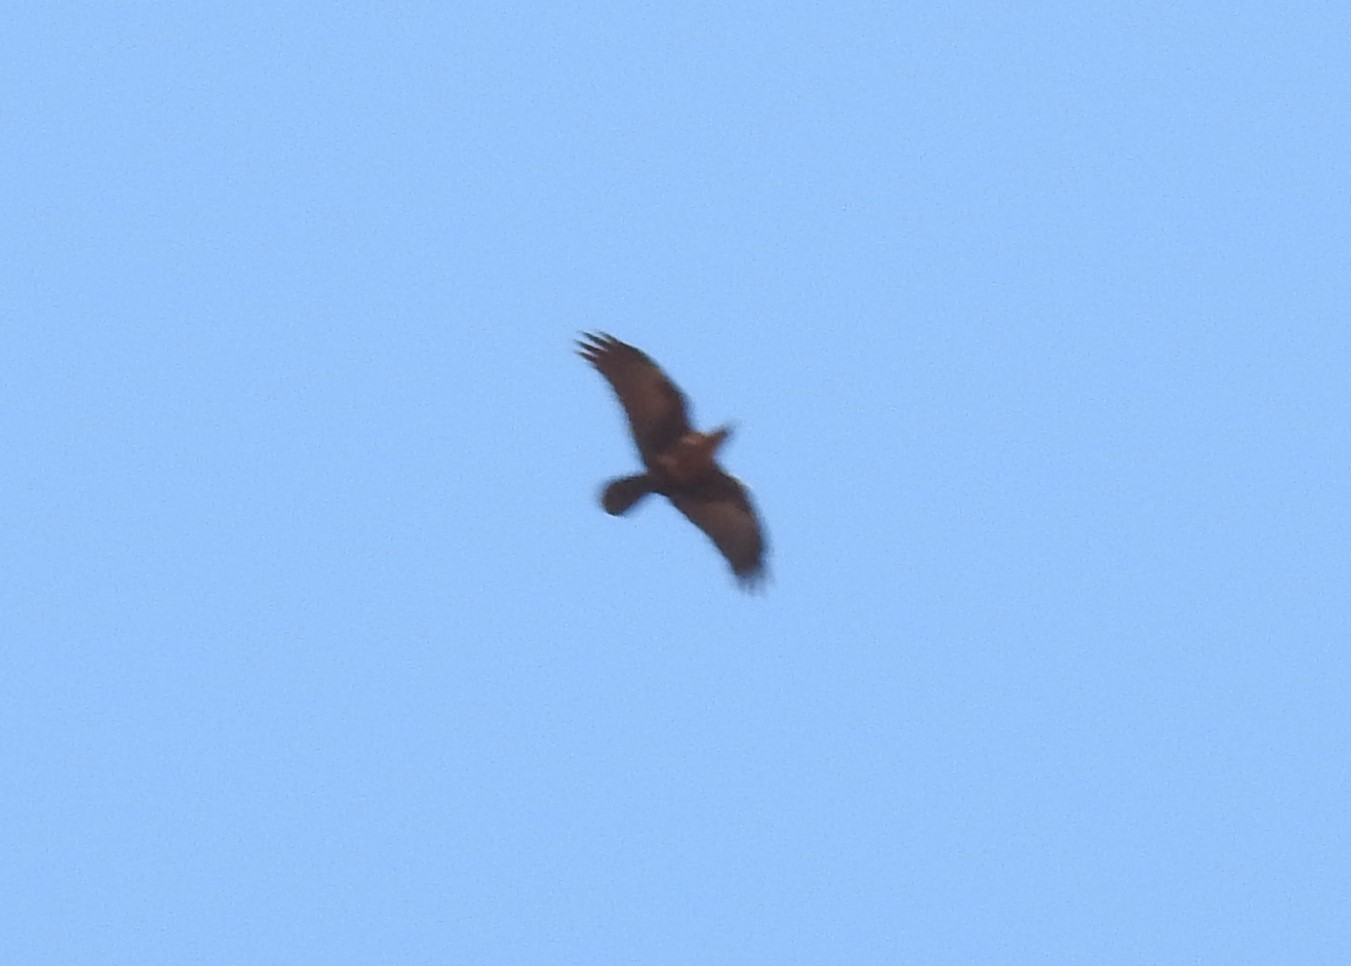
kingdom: Animalia
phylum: Chordata
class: Aves
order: Passeriformes
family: Corvidae
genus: Corvus
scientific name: Corvus ruficollis
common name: Brown-necked raven
